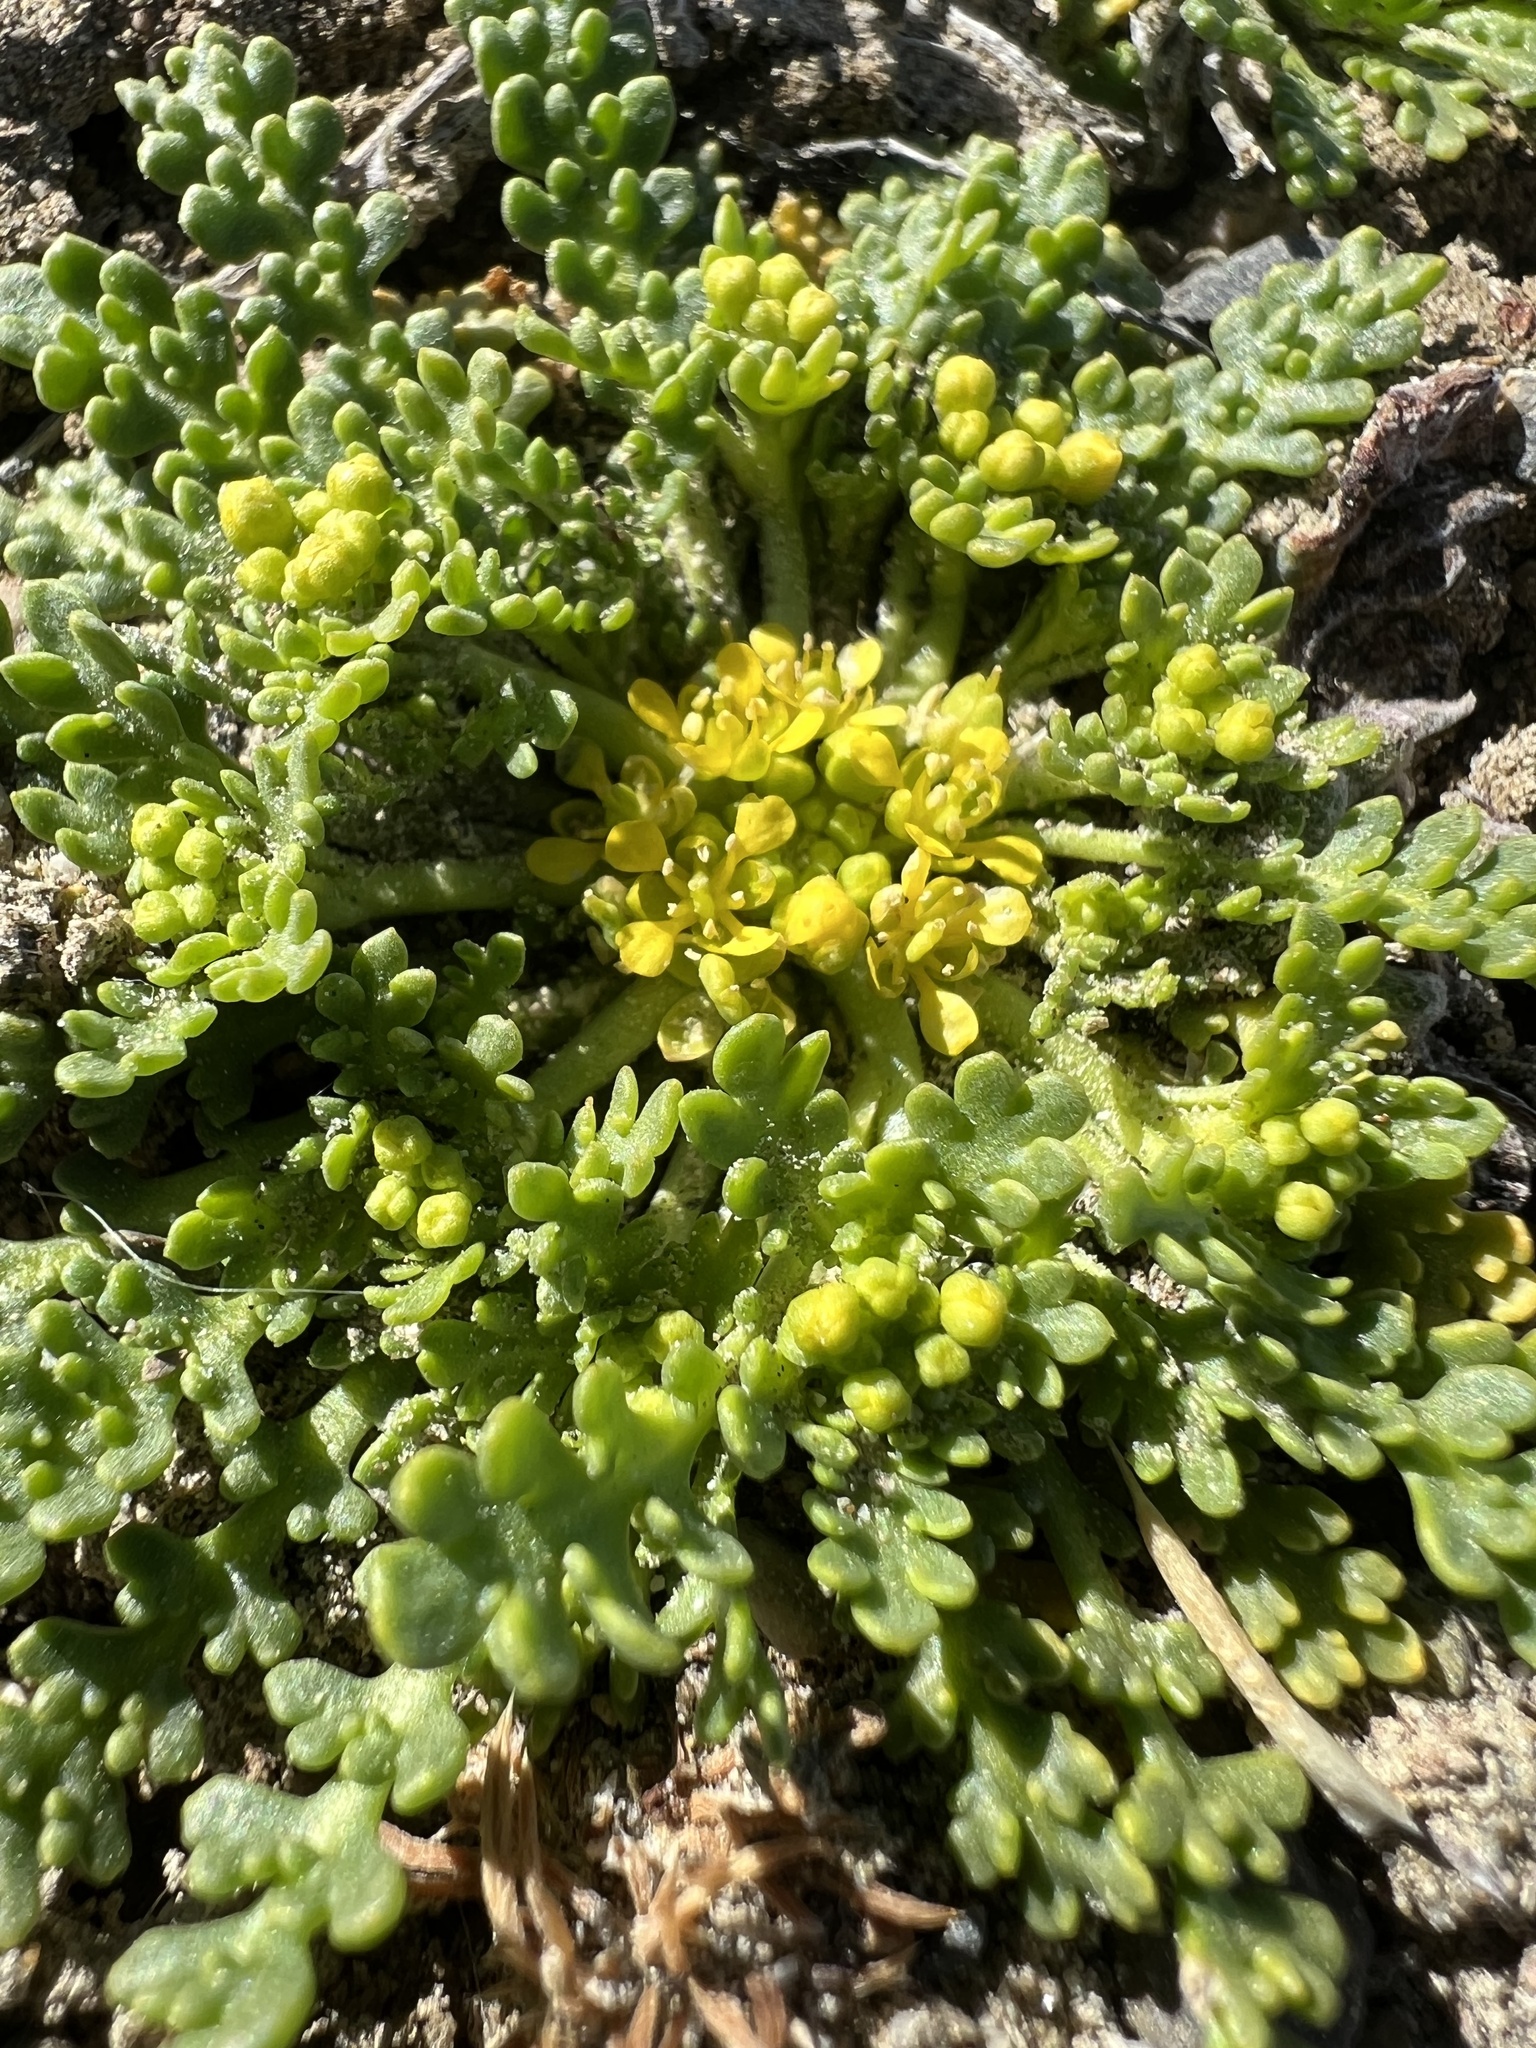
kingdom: Plantae
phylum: Tracheophyta
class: Magnoliopsida
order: Brassicales
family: Brassicaceae
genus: Lepidium
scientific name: Lepidium flavum
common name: Yellow pepperwort
